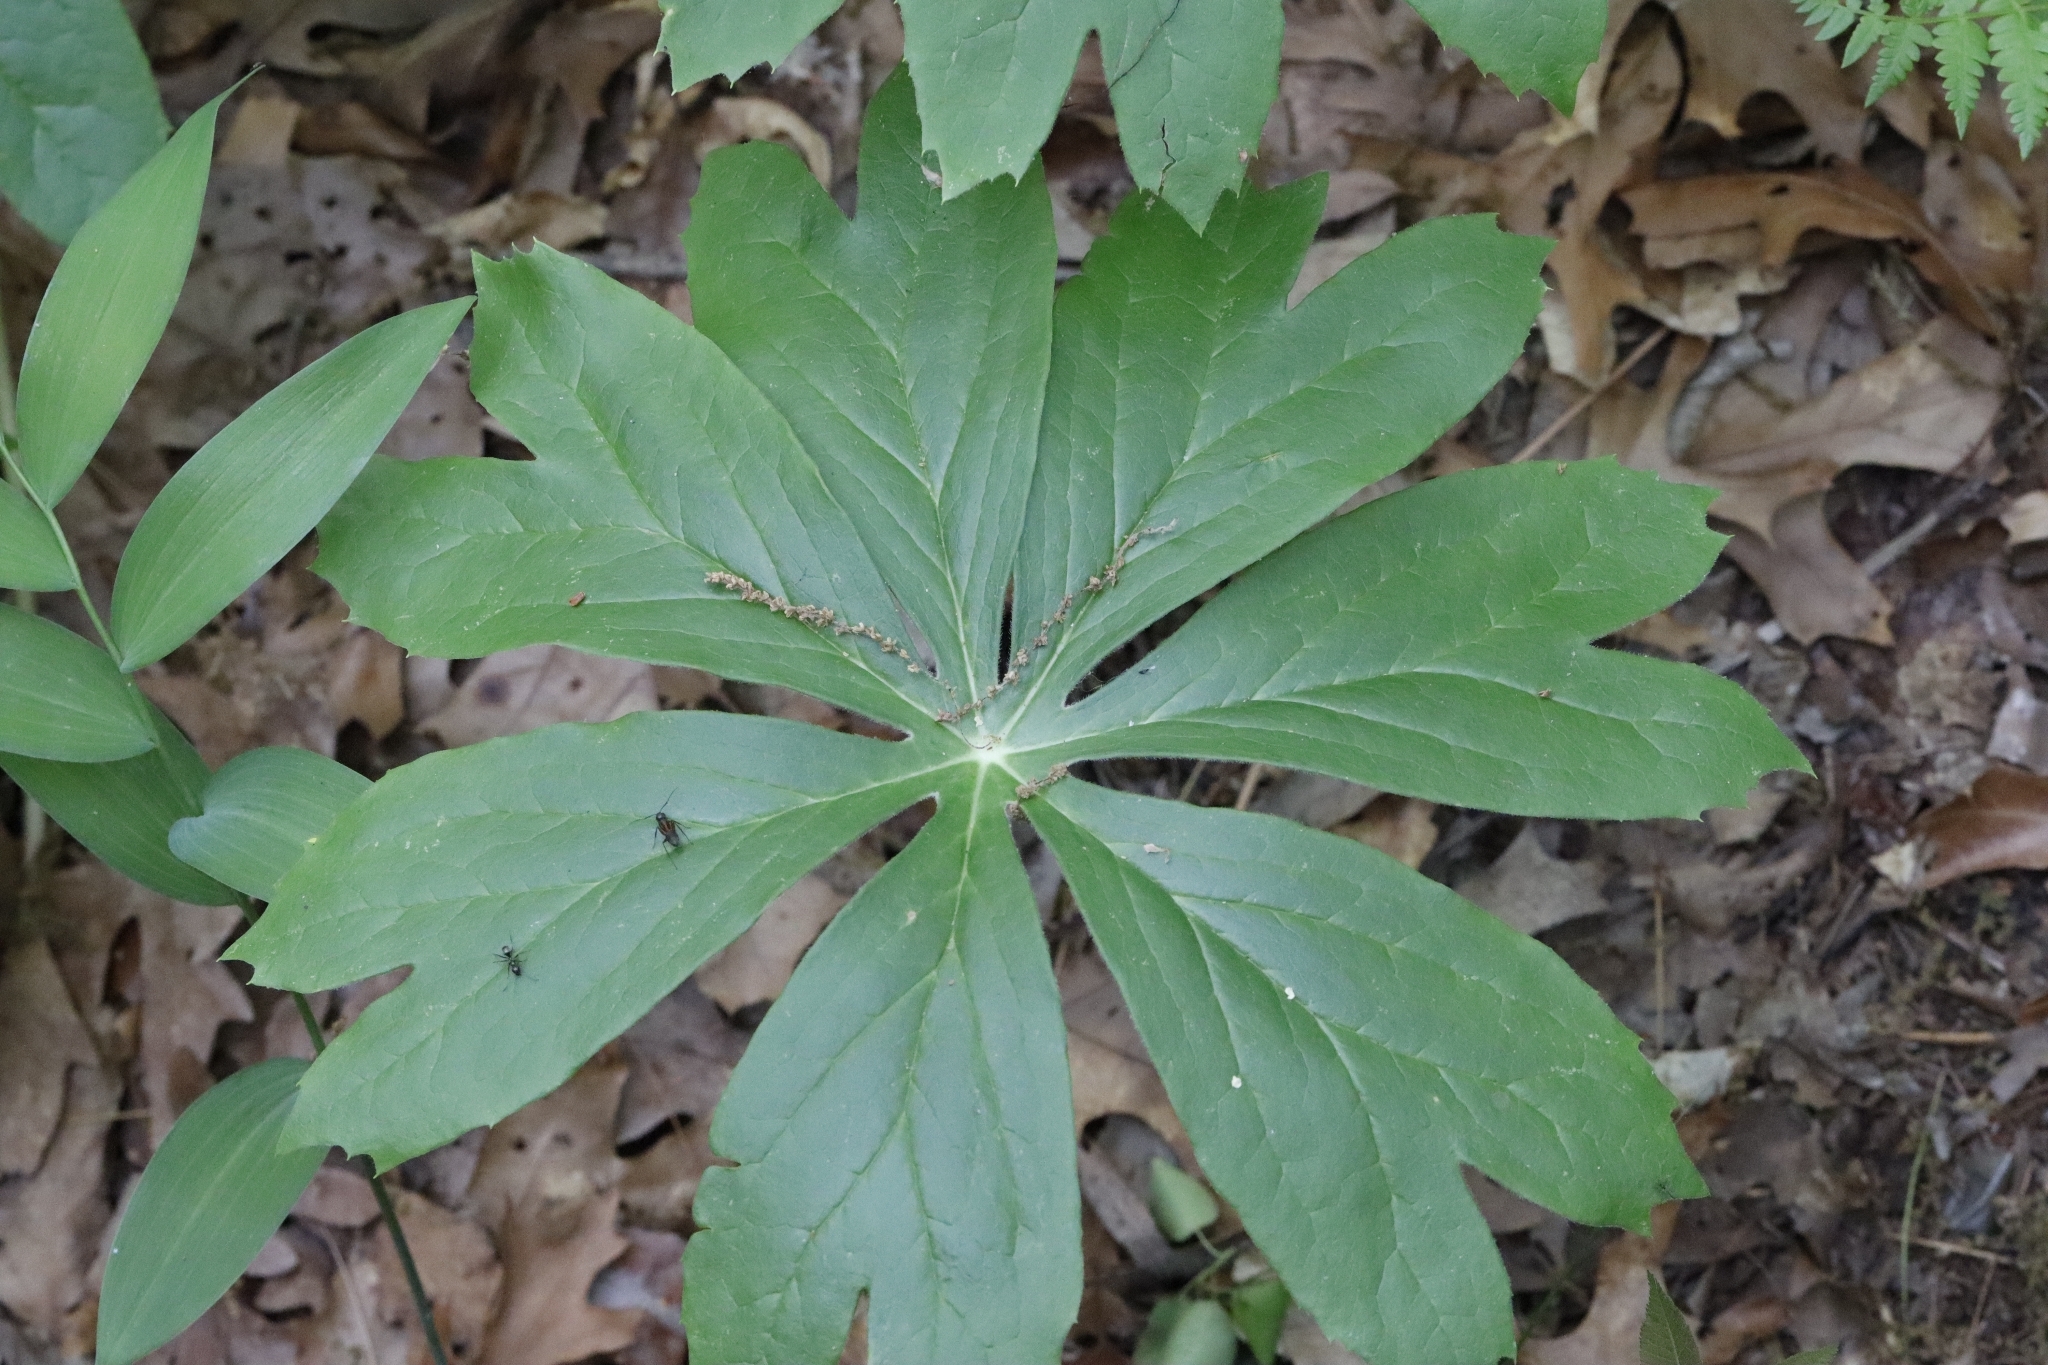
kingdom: Plantae
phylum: Tracheophyta
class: Magnoliopsida
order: Ranunculales
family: Berberidaceae
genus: Podophyllum
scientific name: Podophyllum peltatum
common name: Wild mandrake
